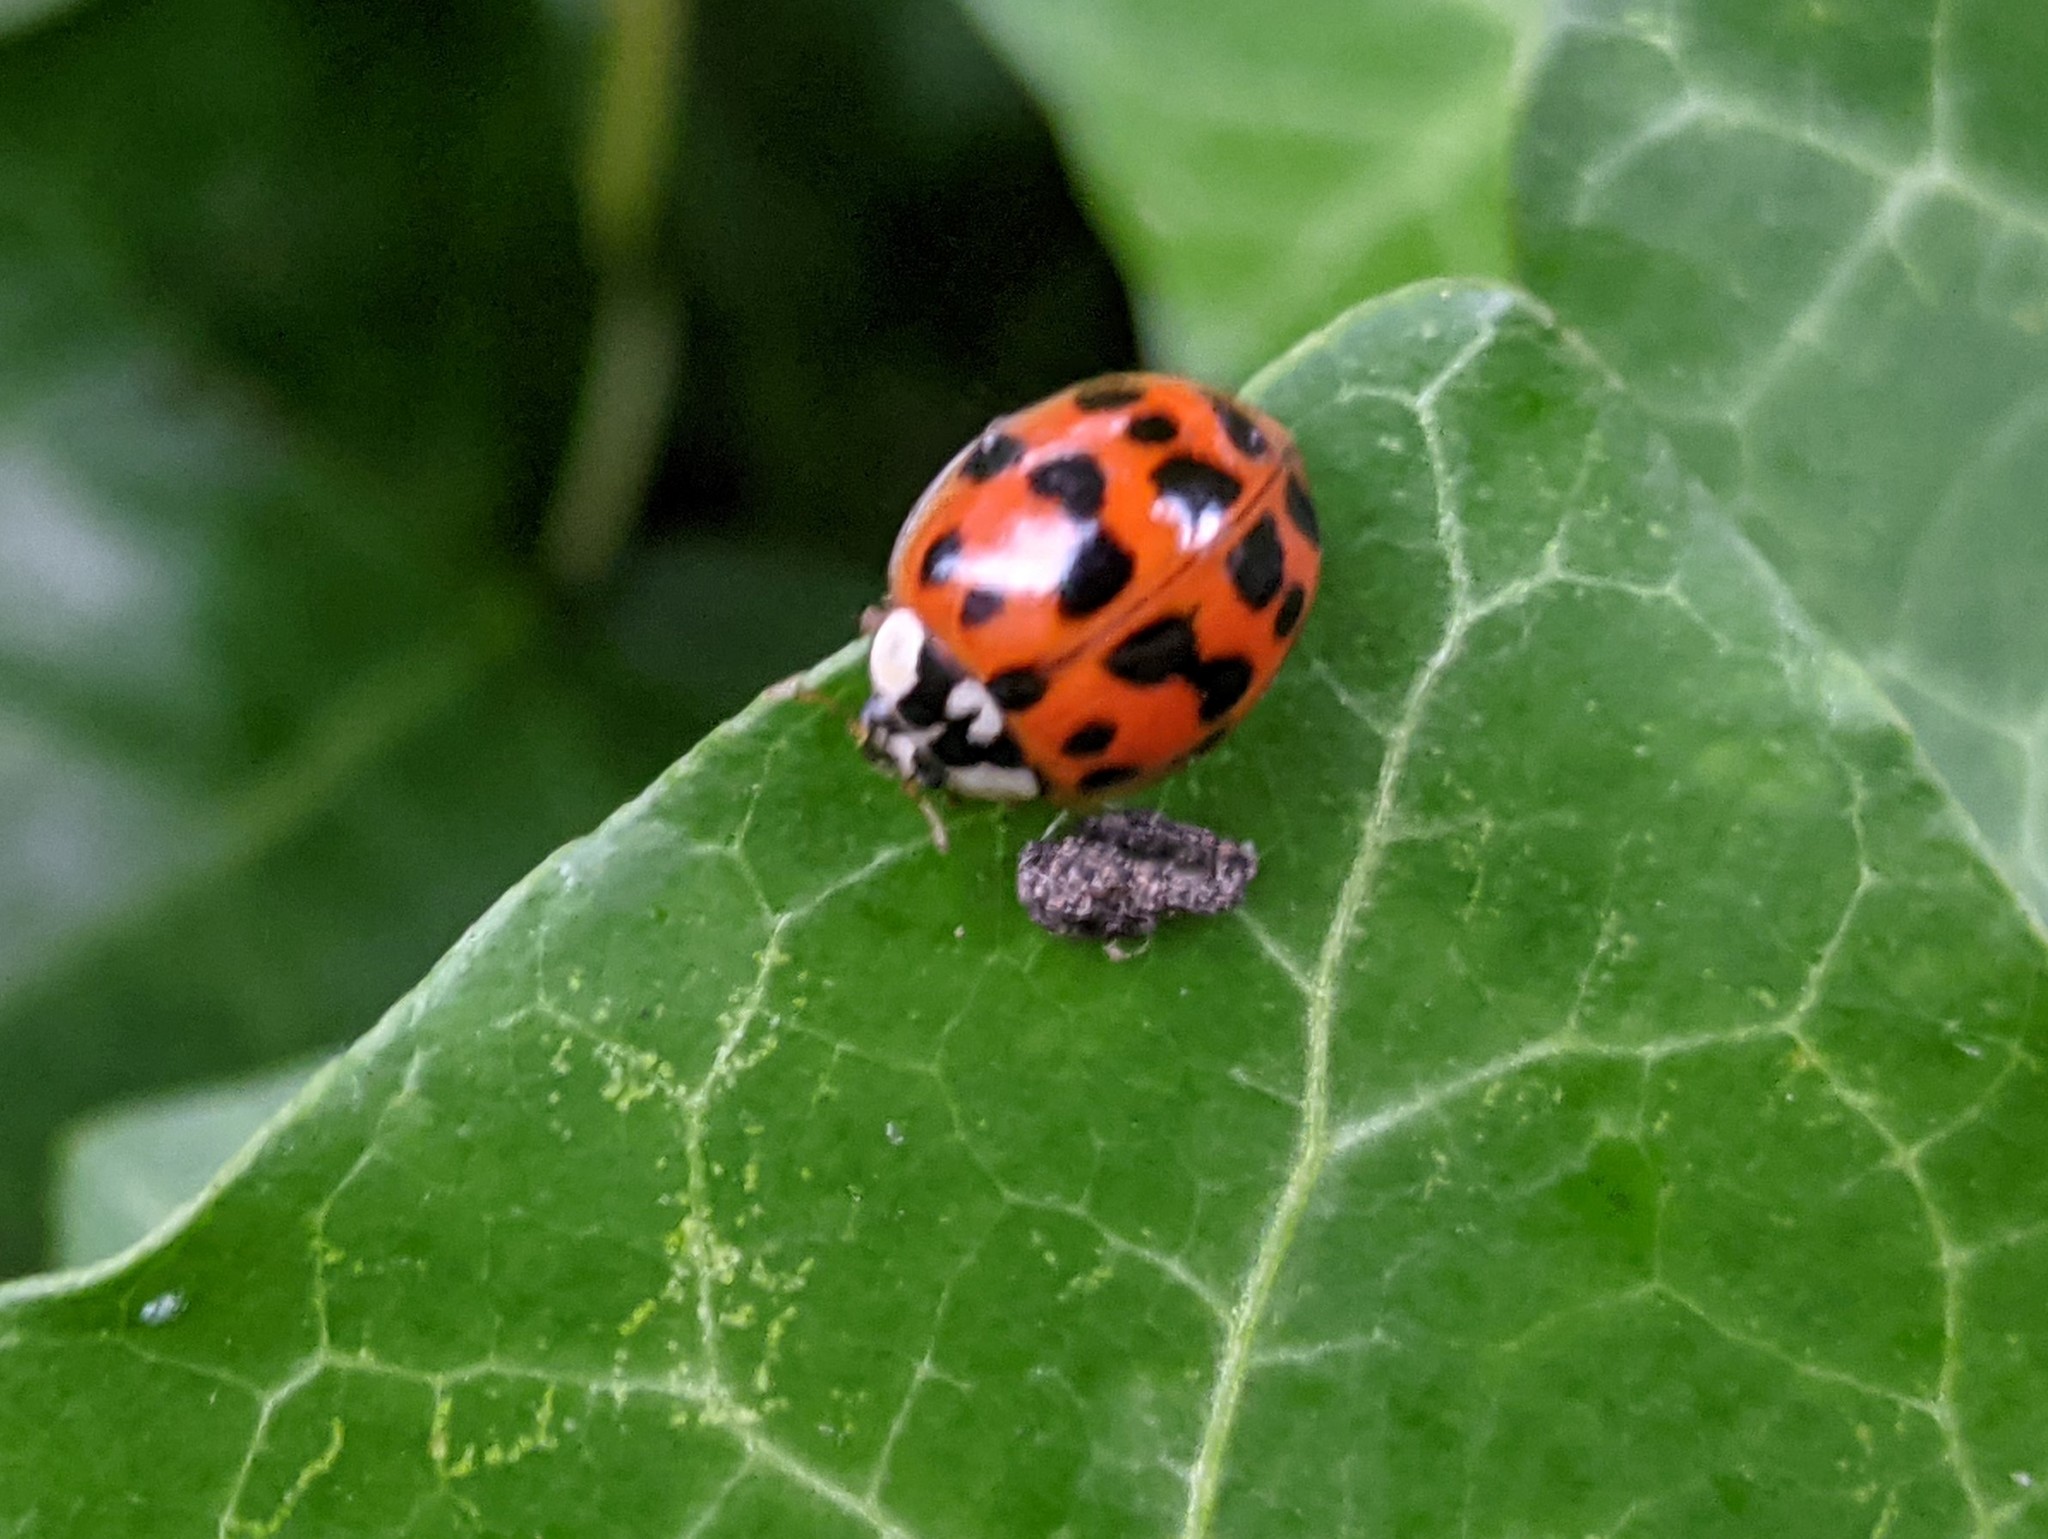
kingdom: Animalia
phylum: Arthropoda
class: Insecta
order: Coleoptera
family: Coccinellidae
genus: Harmonia
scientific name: Harmonia axyridis
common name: Harlequin ladybird
